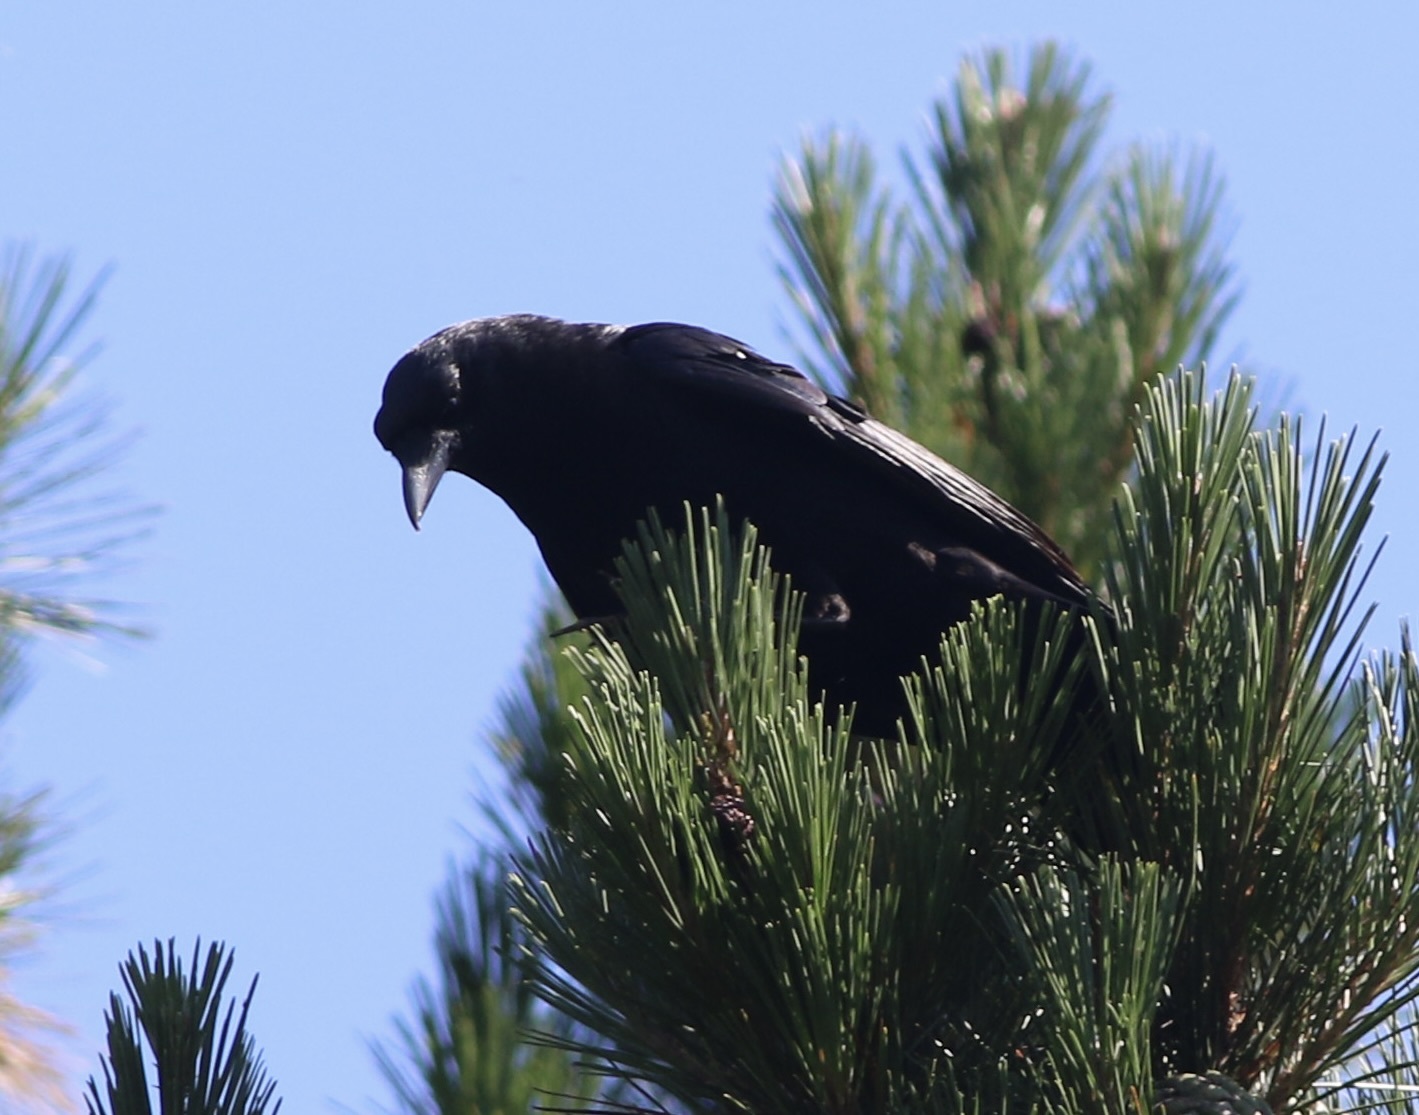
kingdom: Animalia
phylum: Chordata
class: Aves
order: Passeriformes
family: Corvidae
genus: Corvus
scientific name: Corvus brachyrhynchos
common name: American crow
